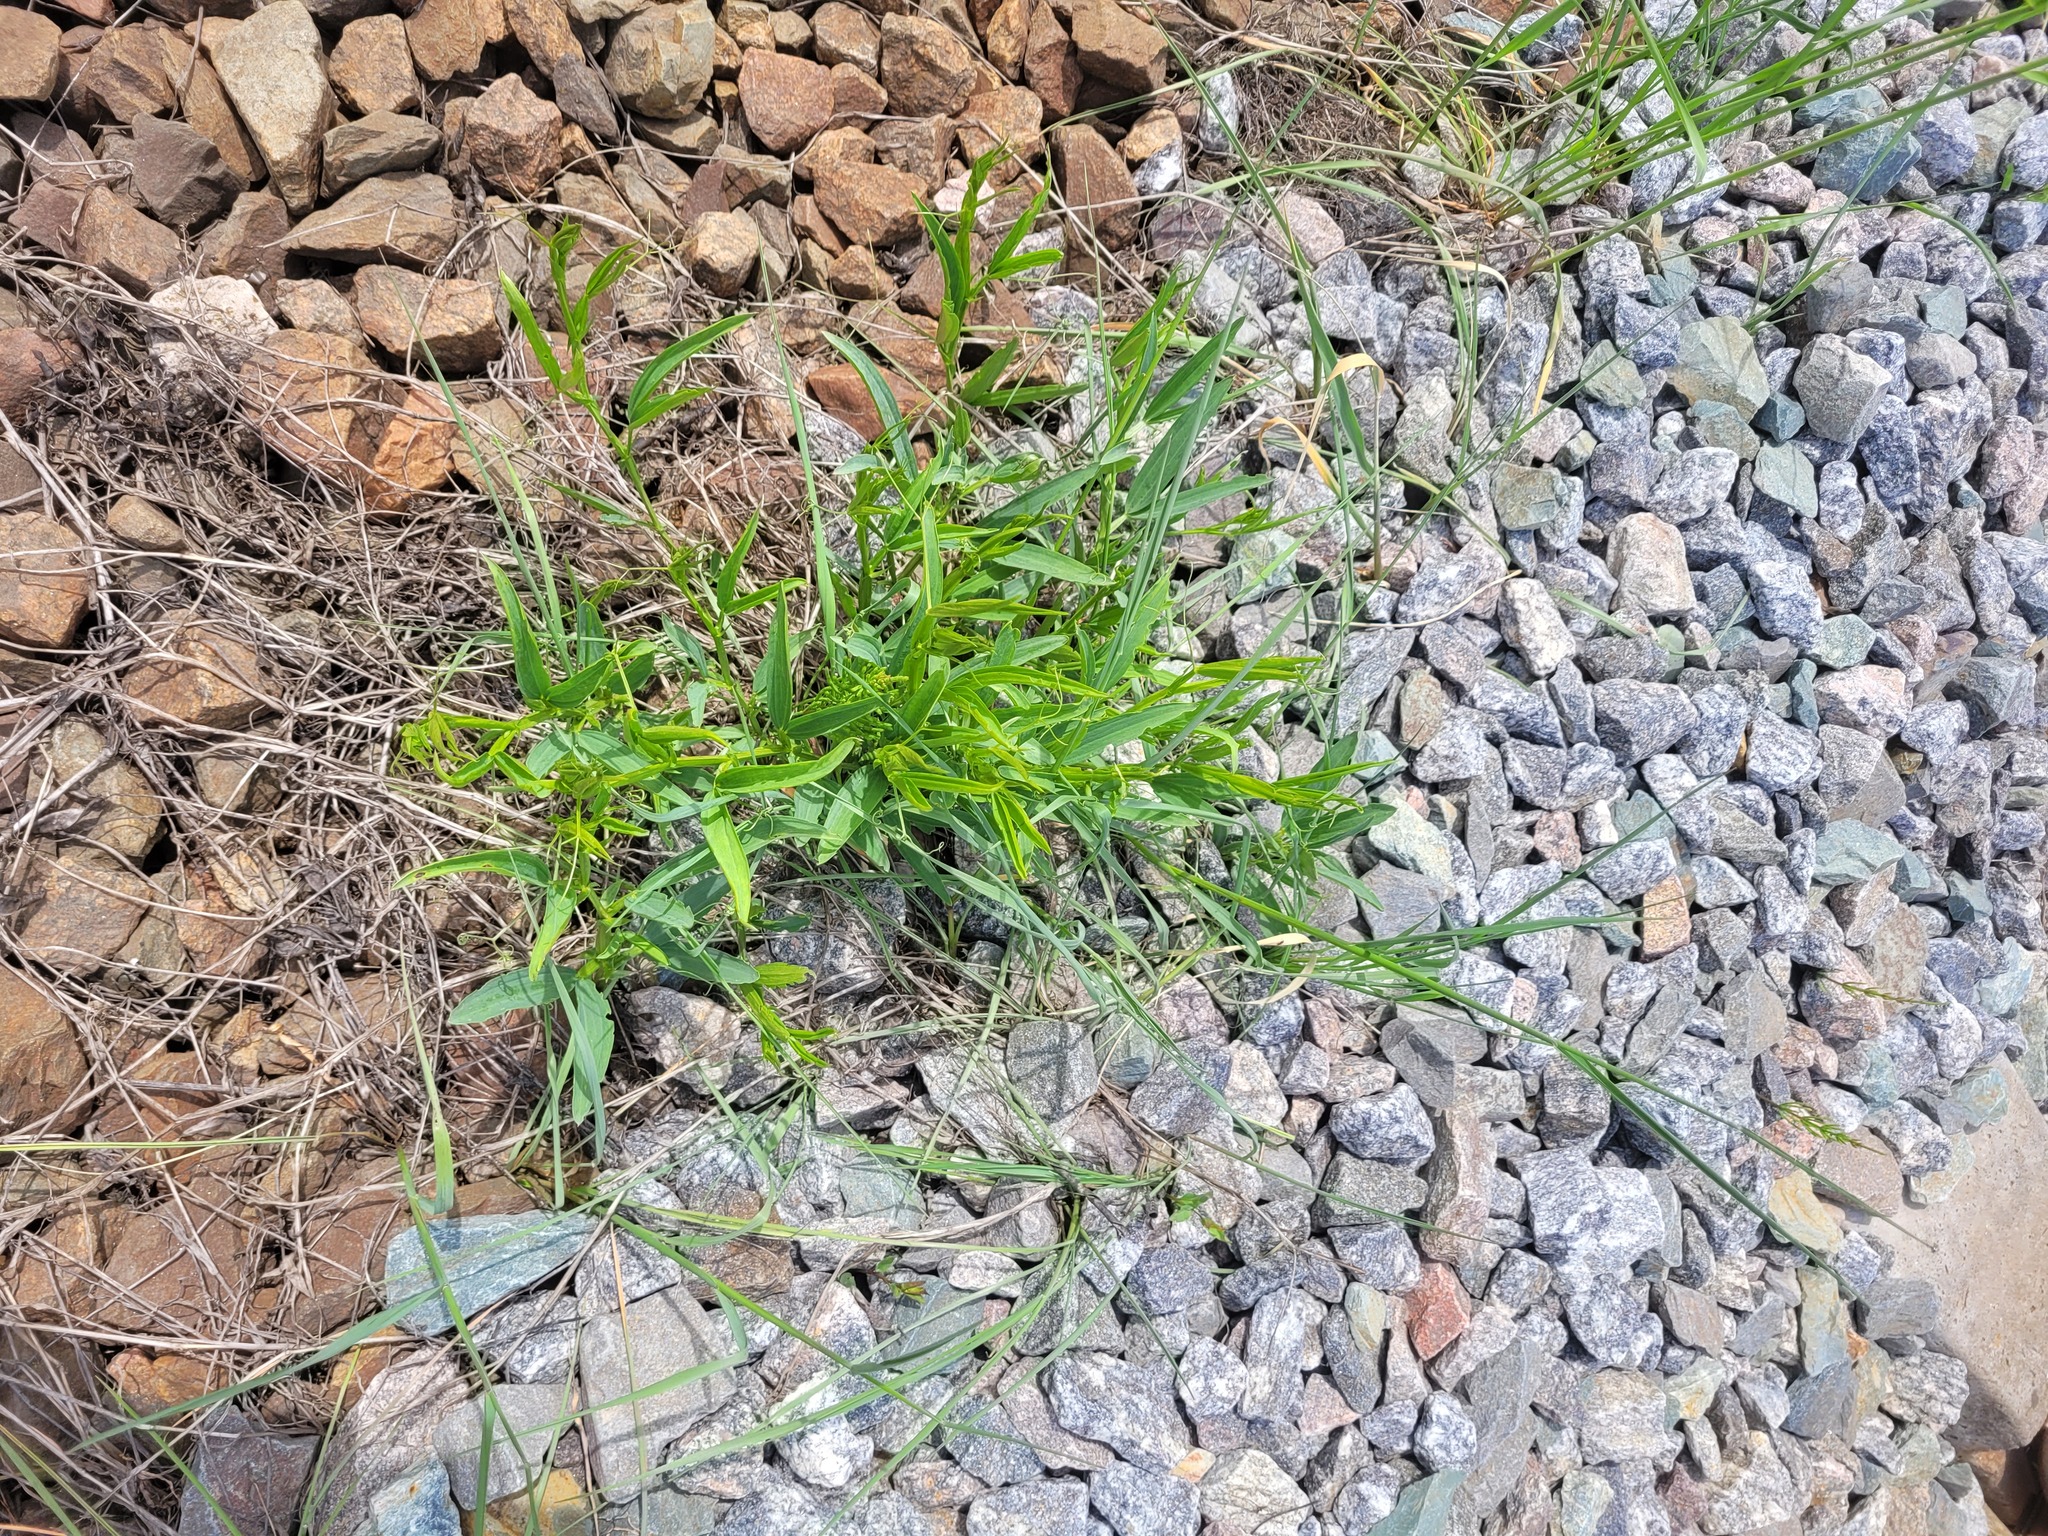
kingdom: Plantae
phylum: Tracheophyta
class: Magnoliopsida
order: Fabales
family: Fabaceae
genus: Lathyrus
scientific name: Lathyrus sylvestris
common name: Flat pea
